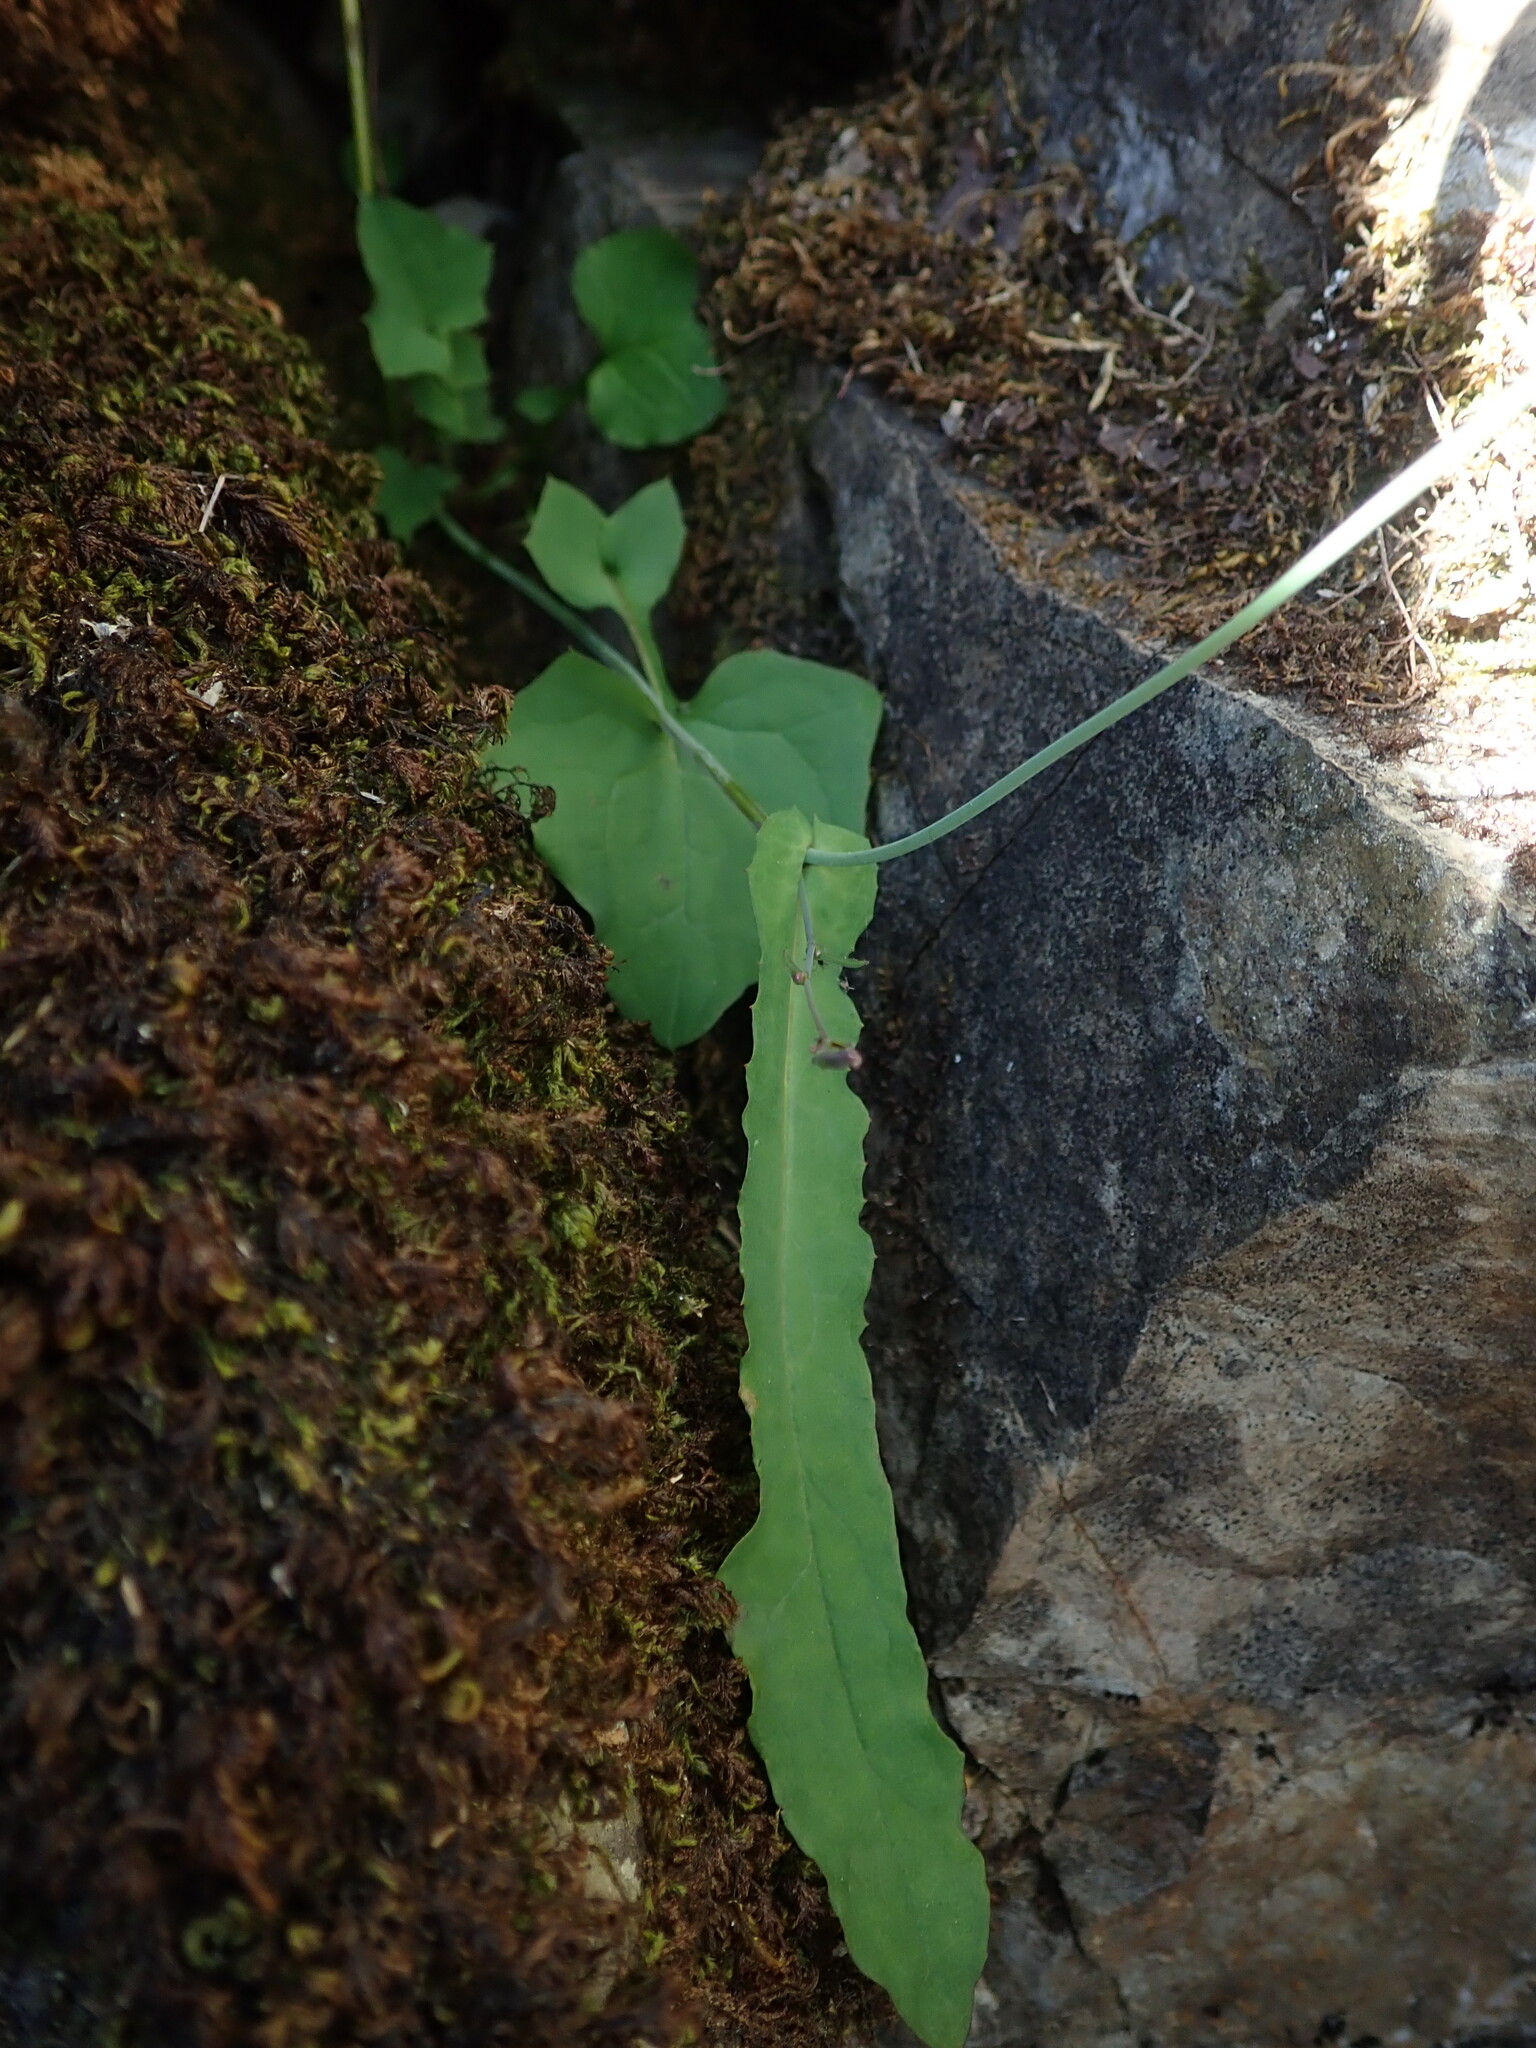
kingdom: Plantae
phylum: Tracheophyta
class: Magnoliopsida
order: Asterales
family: Asteraceae
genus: Mycelis
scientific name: Mycelis muralis
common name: Wall lettuce
